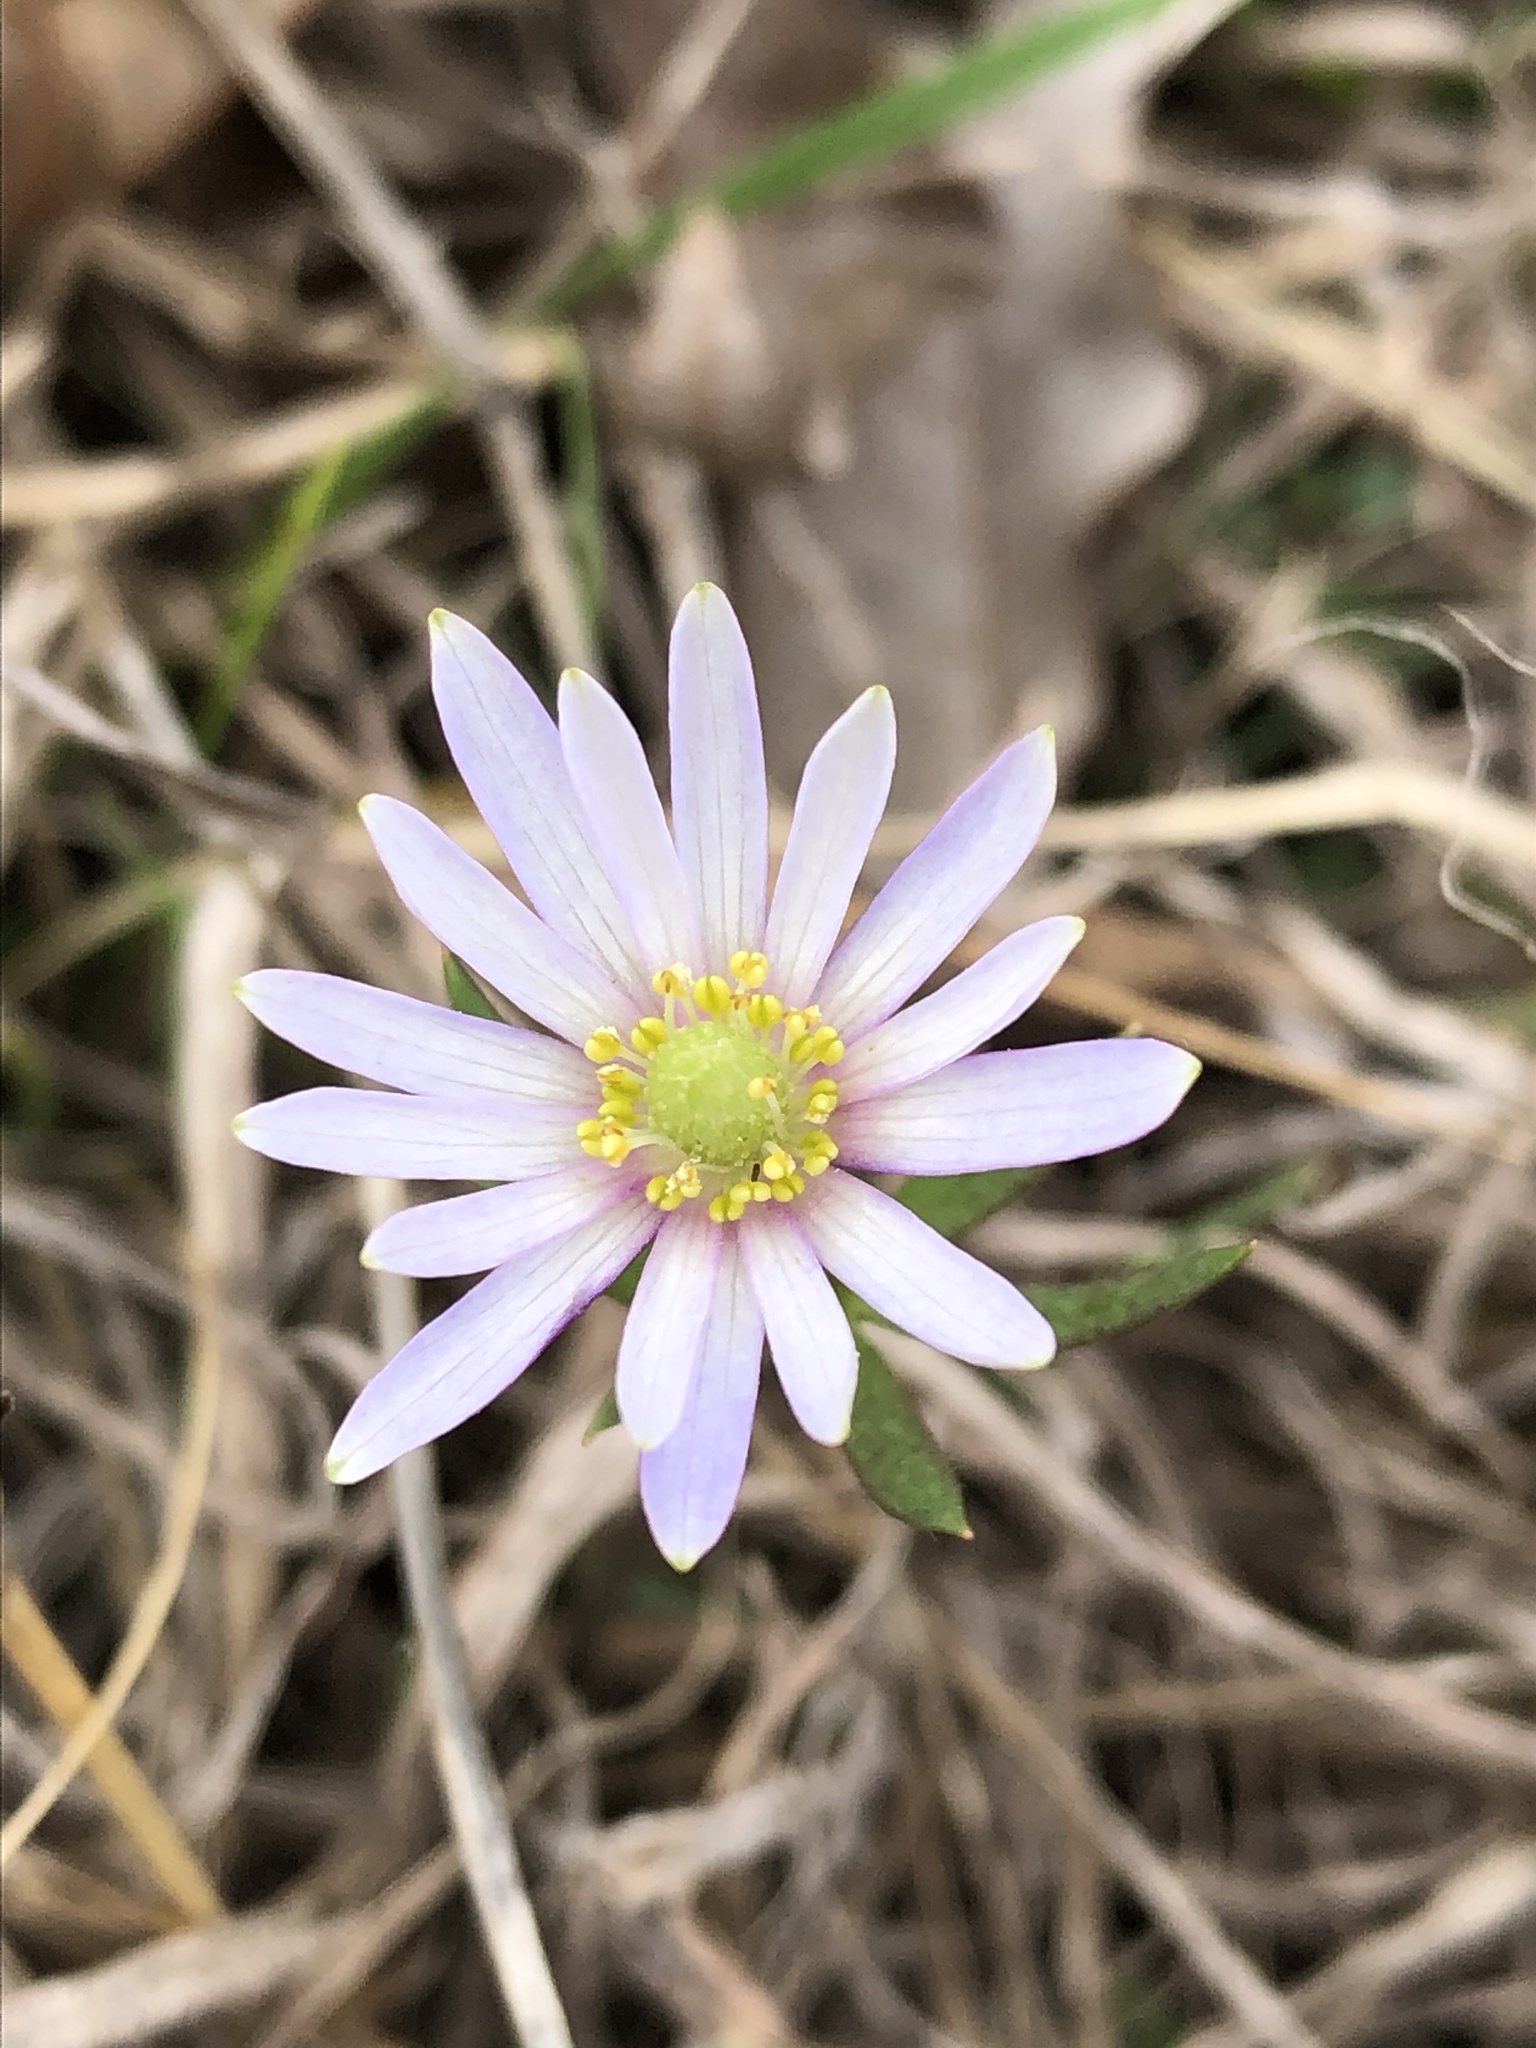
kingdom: Plantae
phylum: Tracheophyta
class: Magnoliopsida
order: Ranunculales
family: Ranunculaceae
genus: Anemone
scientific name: Anemone berlandieri
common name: Ten-petal anemone
